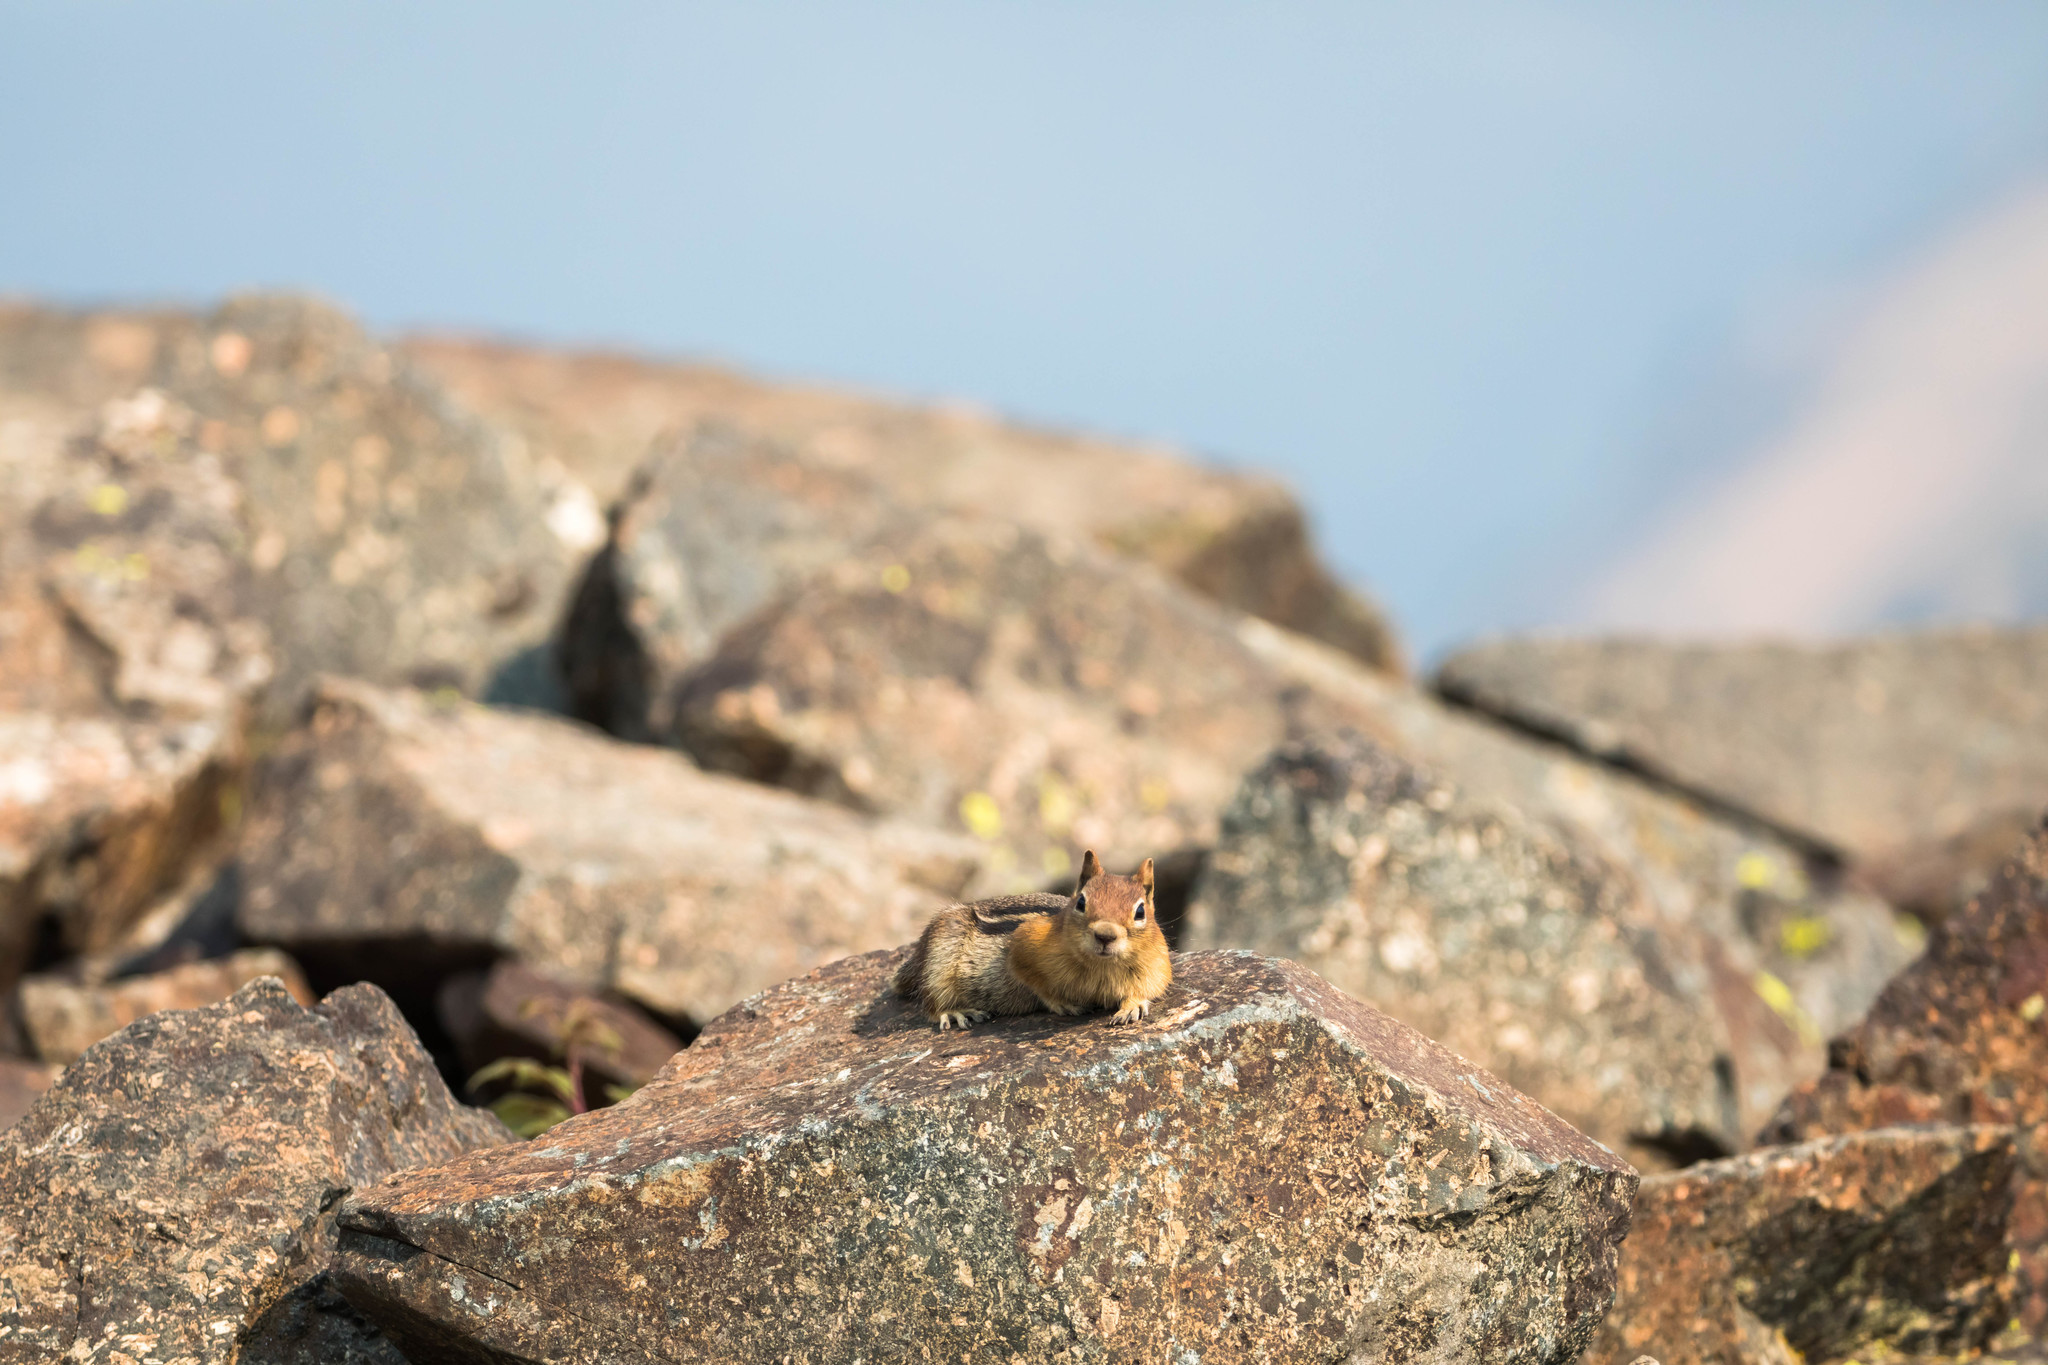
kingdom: Animalia
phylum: Chordata
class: Mammalia
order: Rodentia
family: Sciuridae
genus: Callospermophilus
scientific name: Callospermophilus lateralis
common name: Golden-mantled ground squirrel
